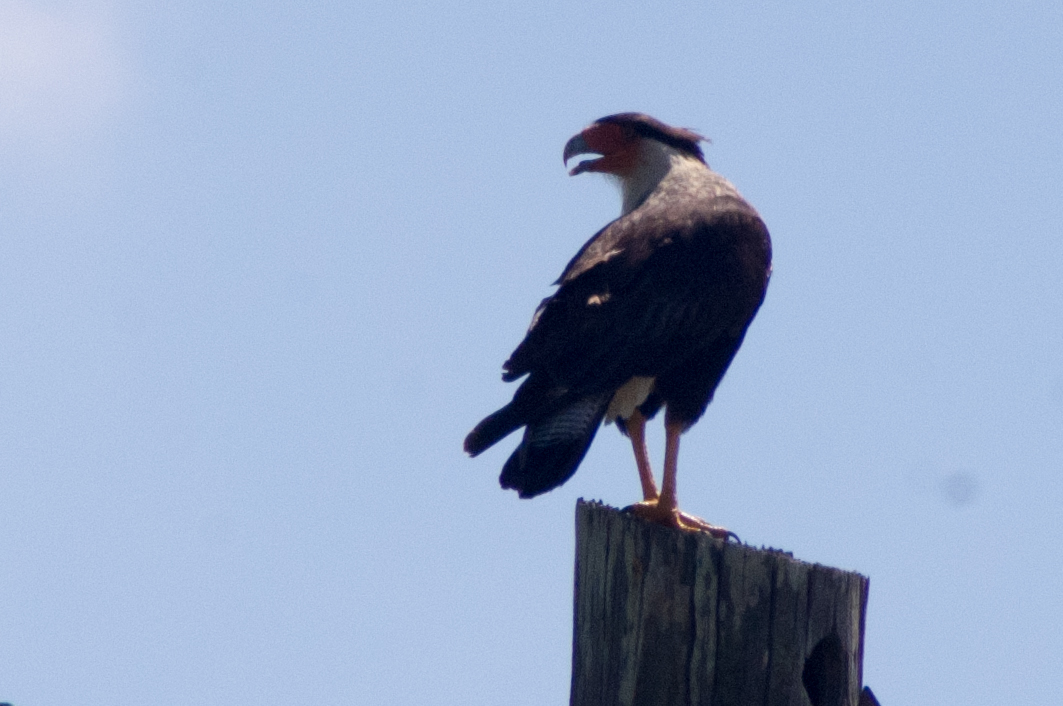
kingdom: Animalia
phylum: Chordata
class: Aves
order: Falconiformes
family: Falconidae
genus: Caracara
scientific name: Caracara plancus
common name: Southern caracara
